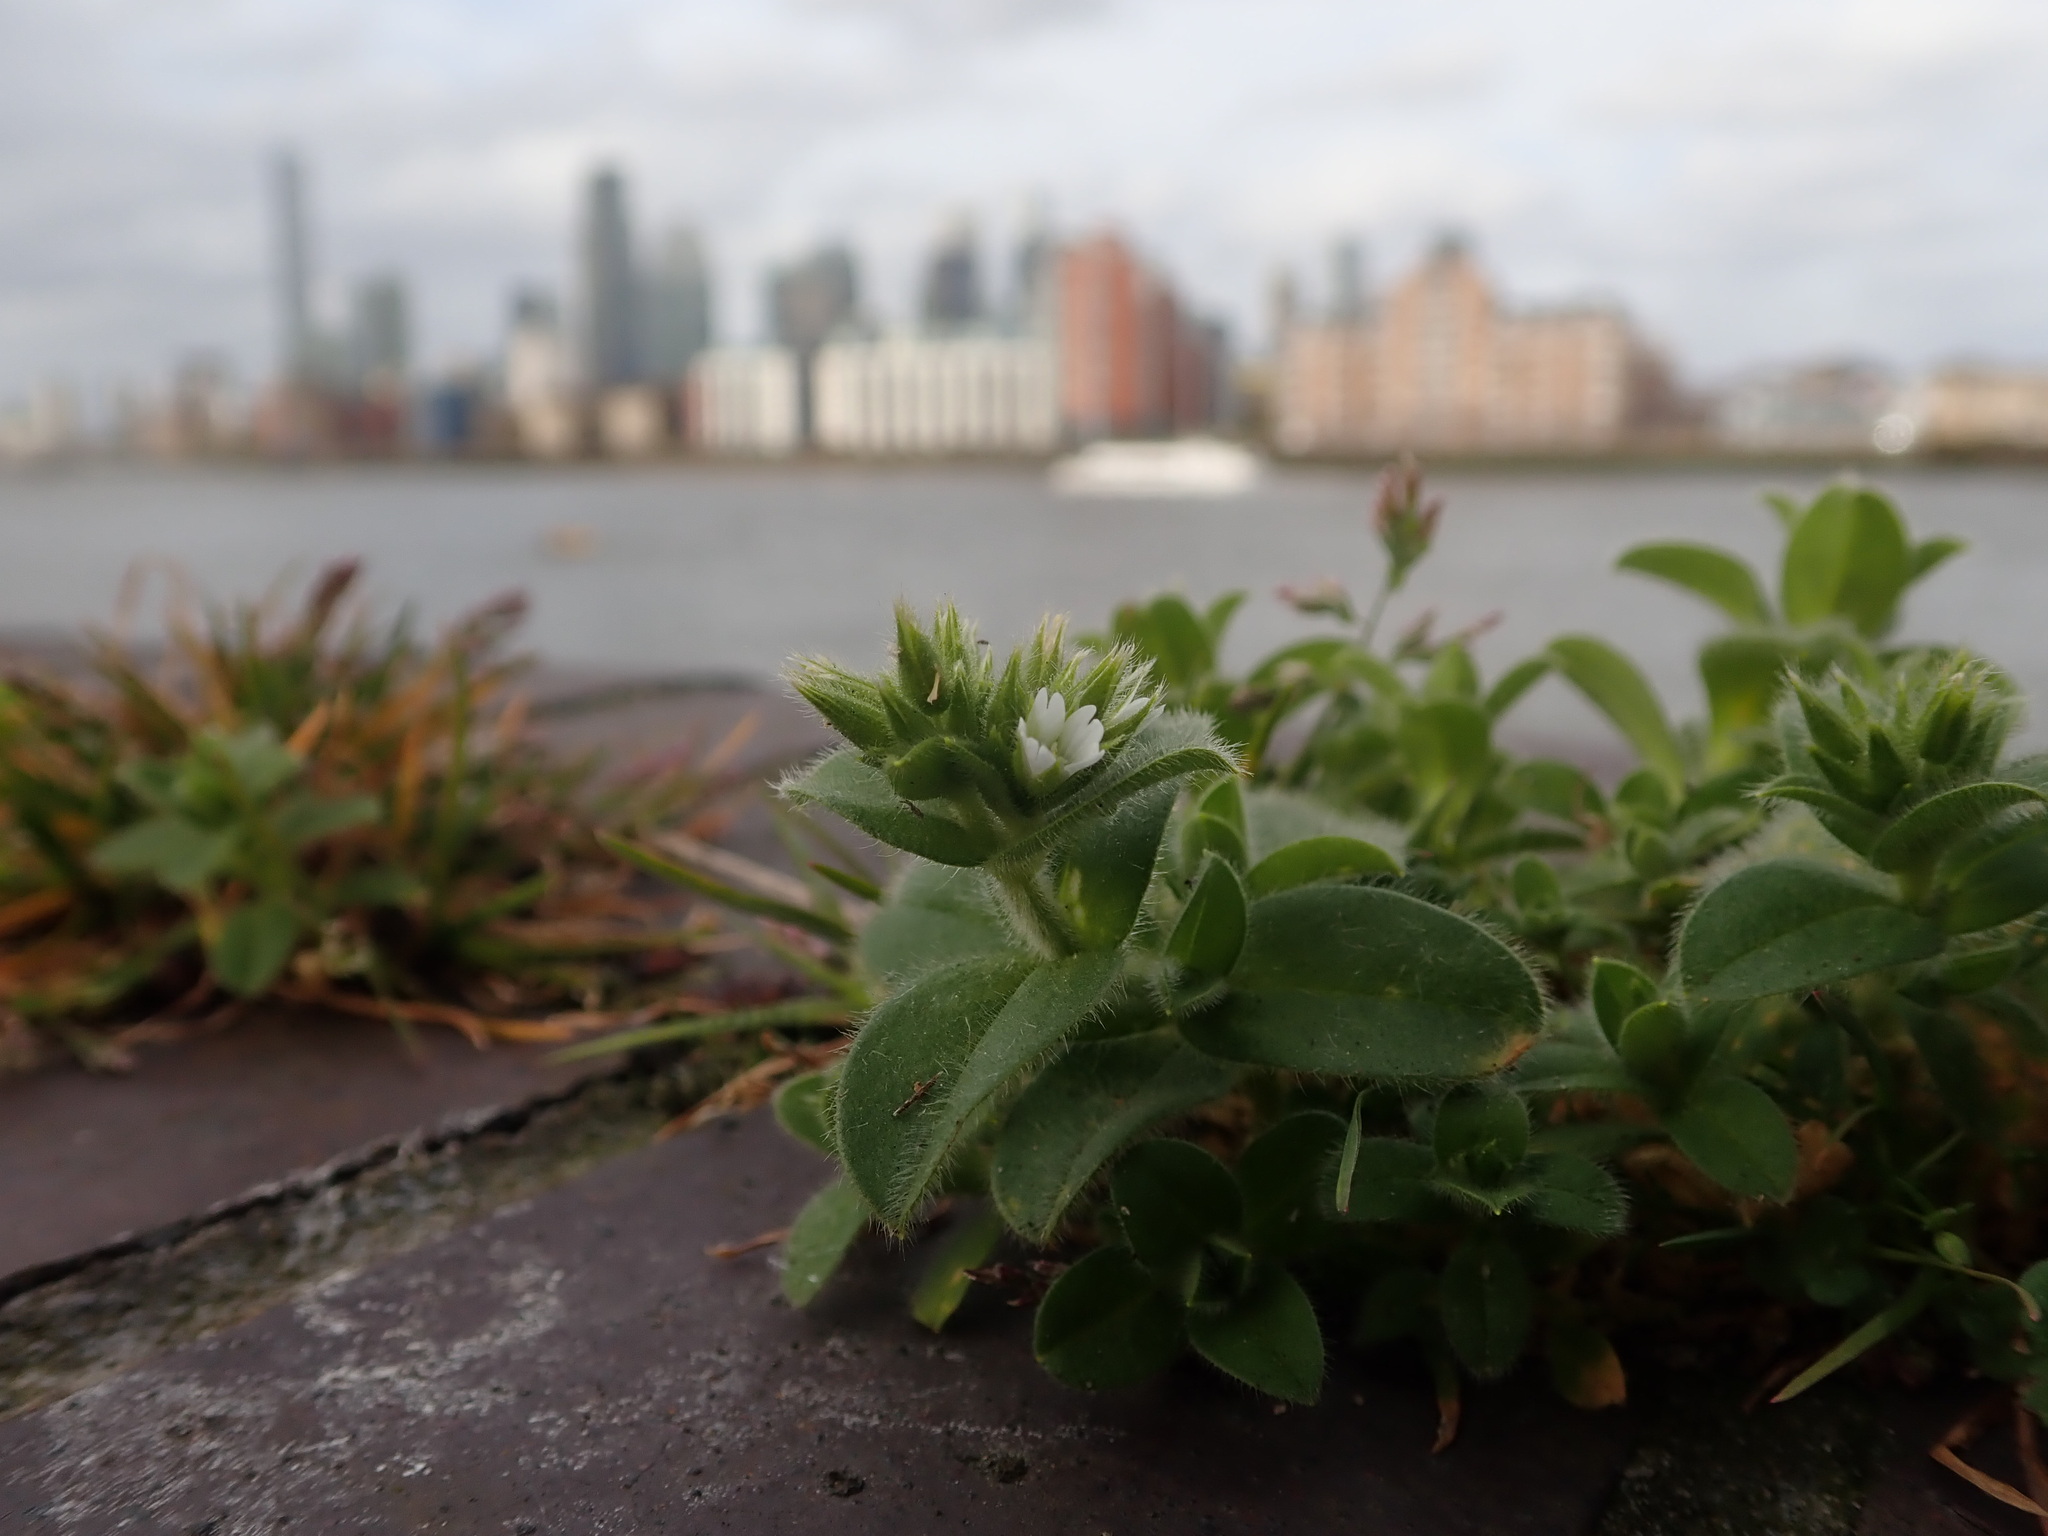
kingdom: Plantae
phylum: Tracheophyta
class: Magnoliopsida
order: Caryophyllales
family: Caryophyllaceae
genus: Cerastium
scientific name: Cerastium glomeratum
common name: Sticky chickweed
